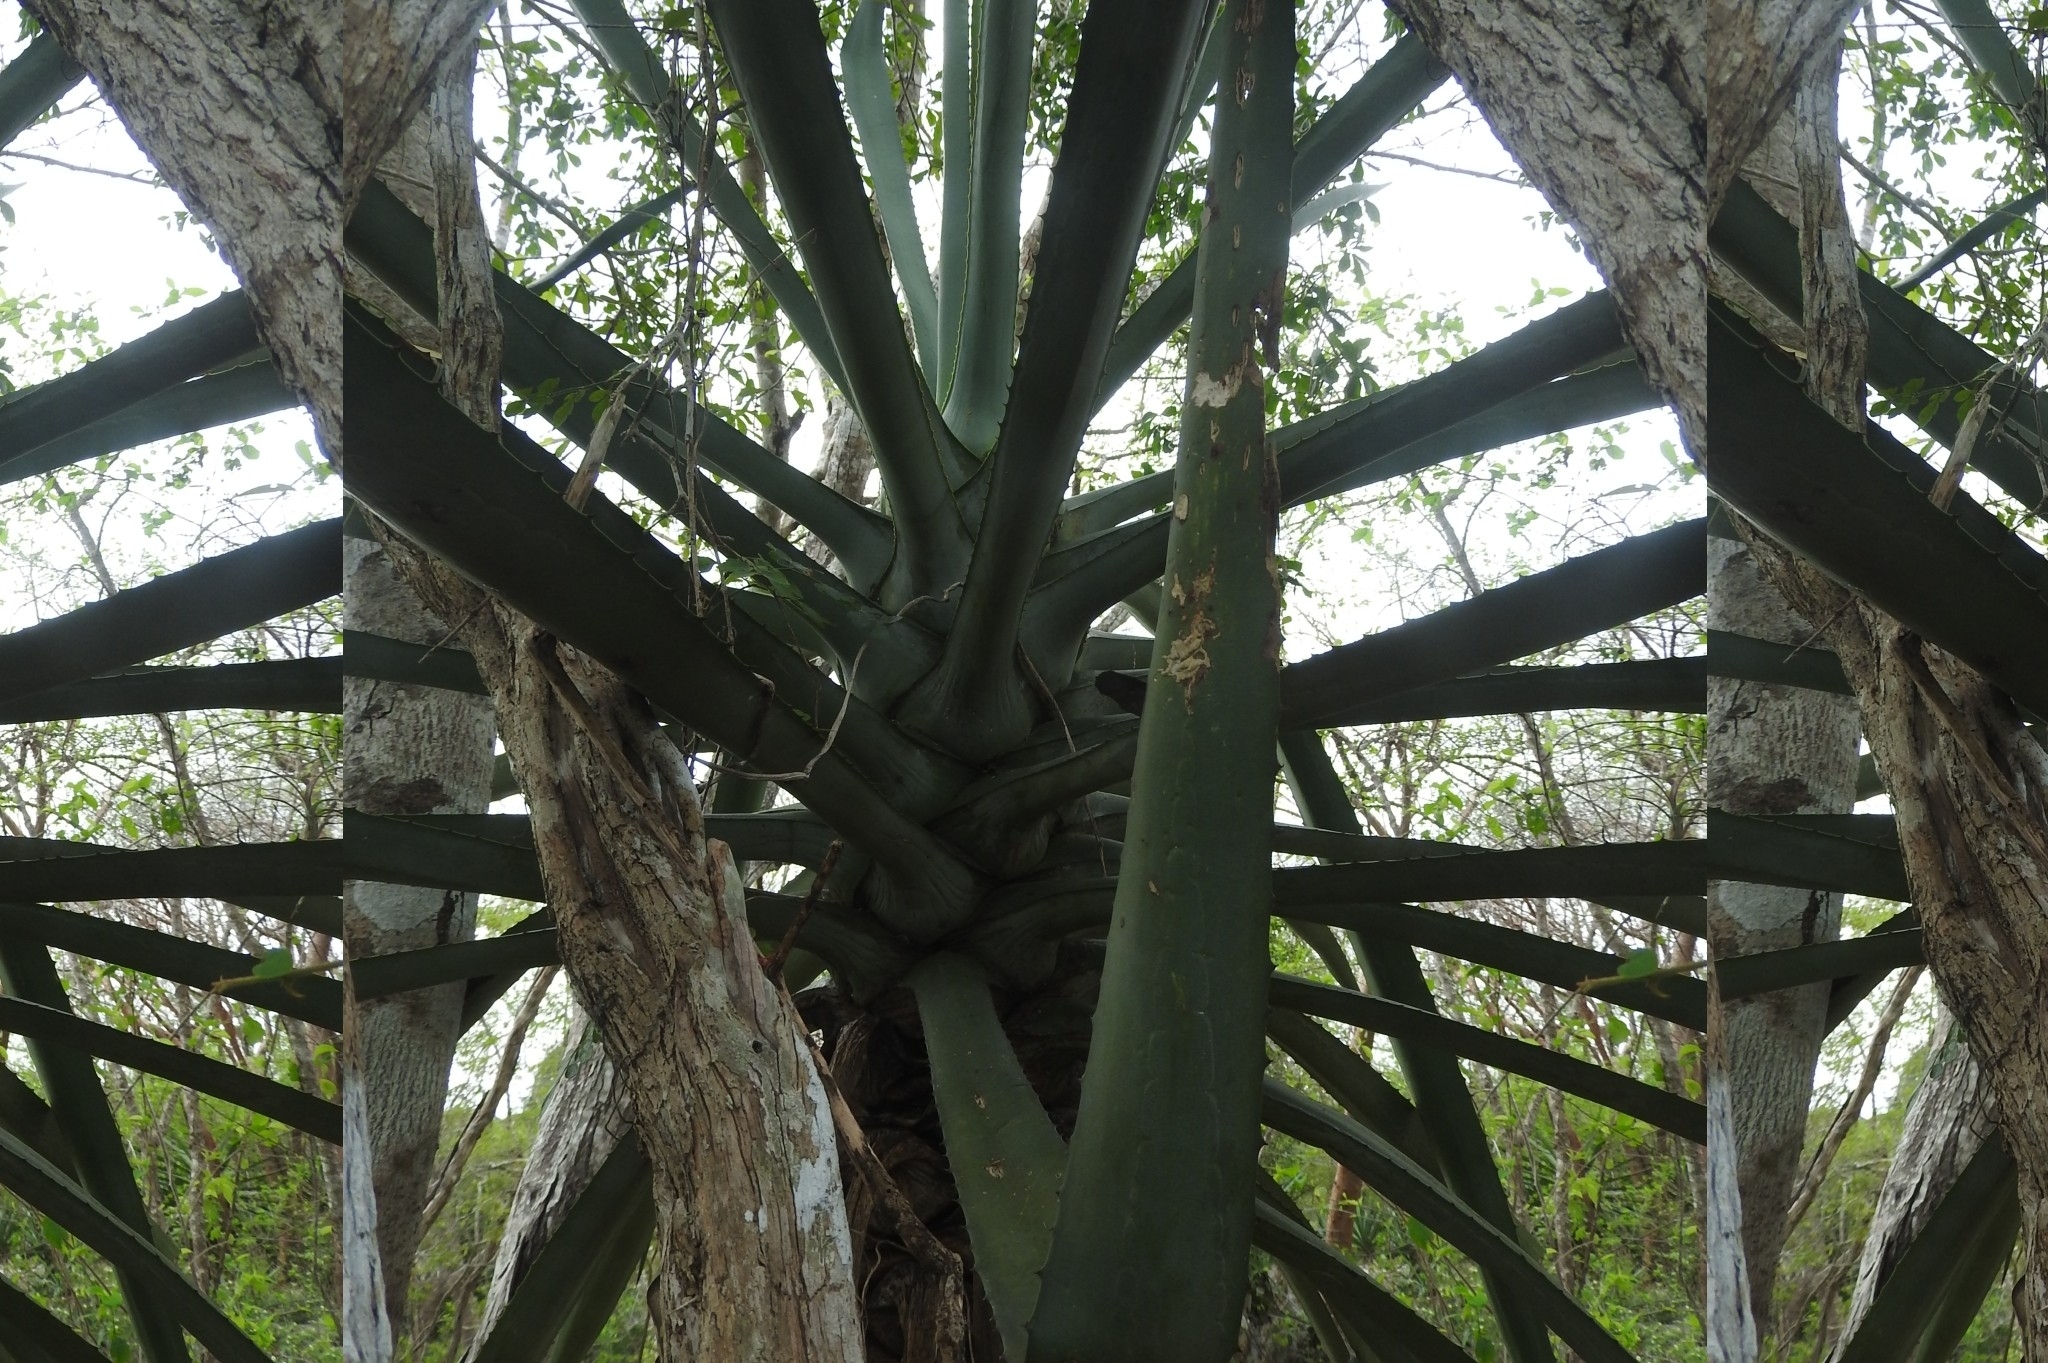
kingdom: Plantae
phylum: Tracheophyta
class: Liliopsida
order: Asparagales
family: Asparagaceae
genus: Agave
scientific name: Agave vivipara
